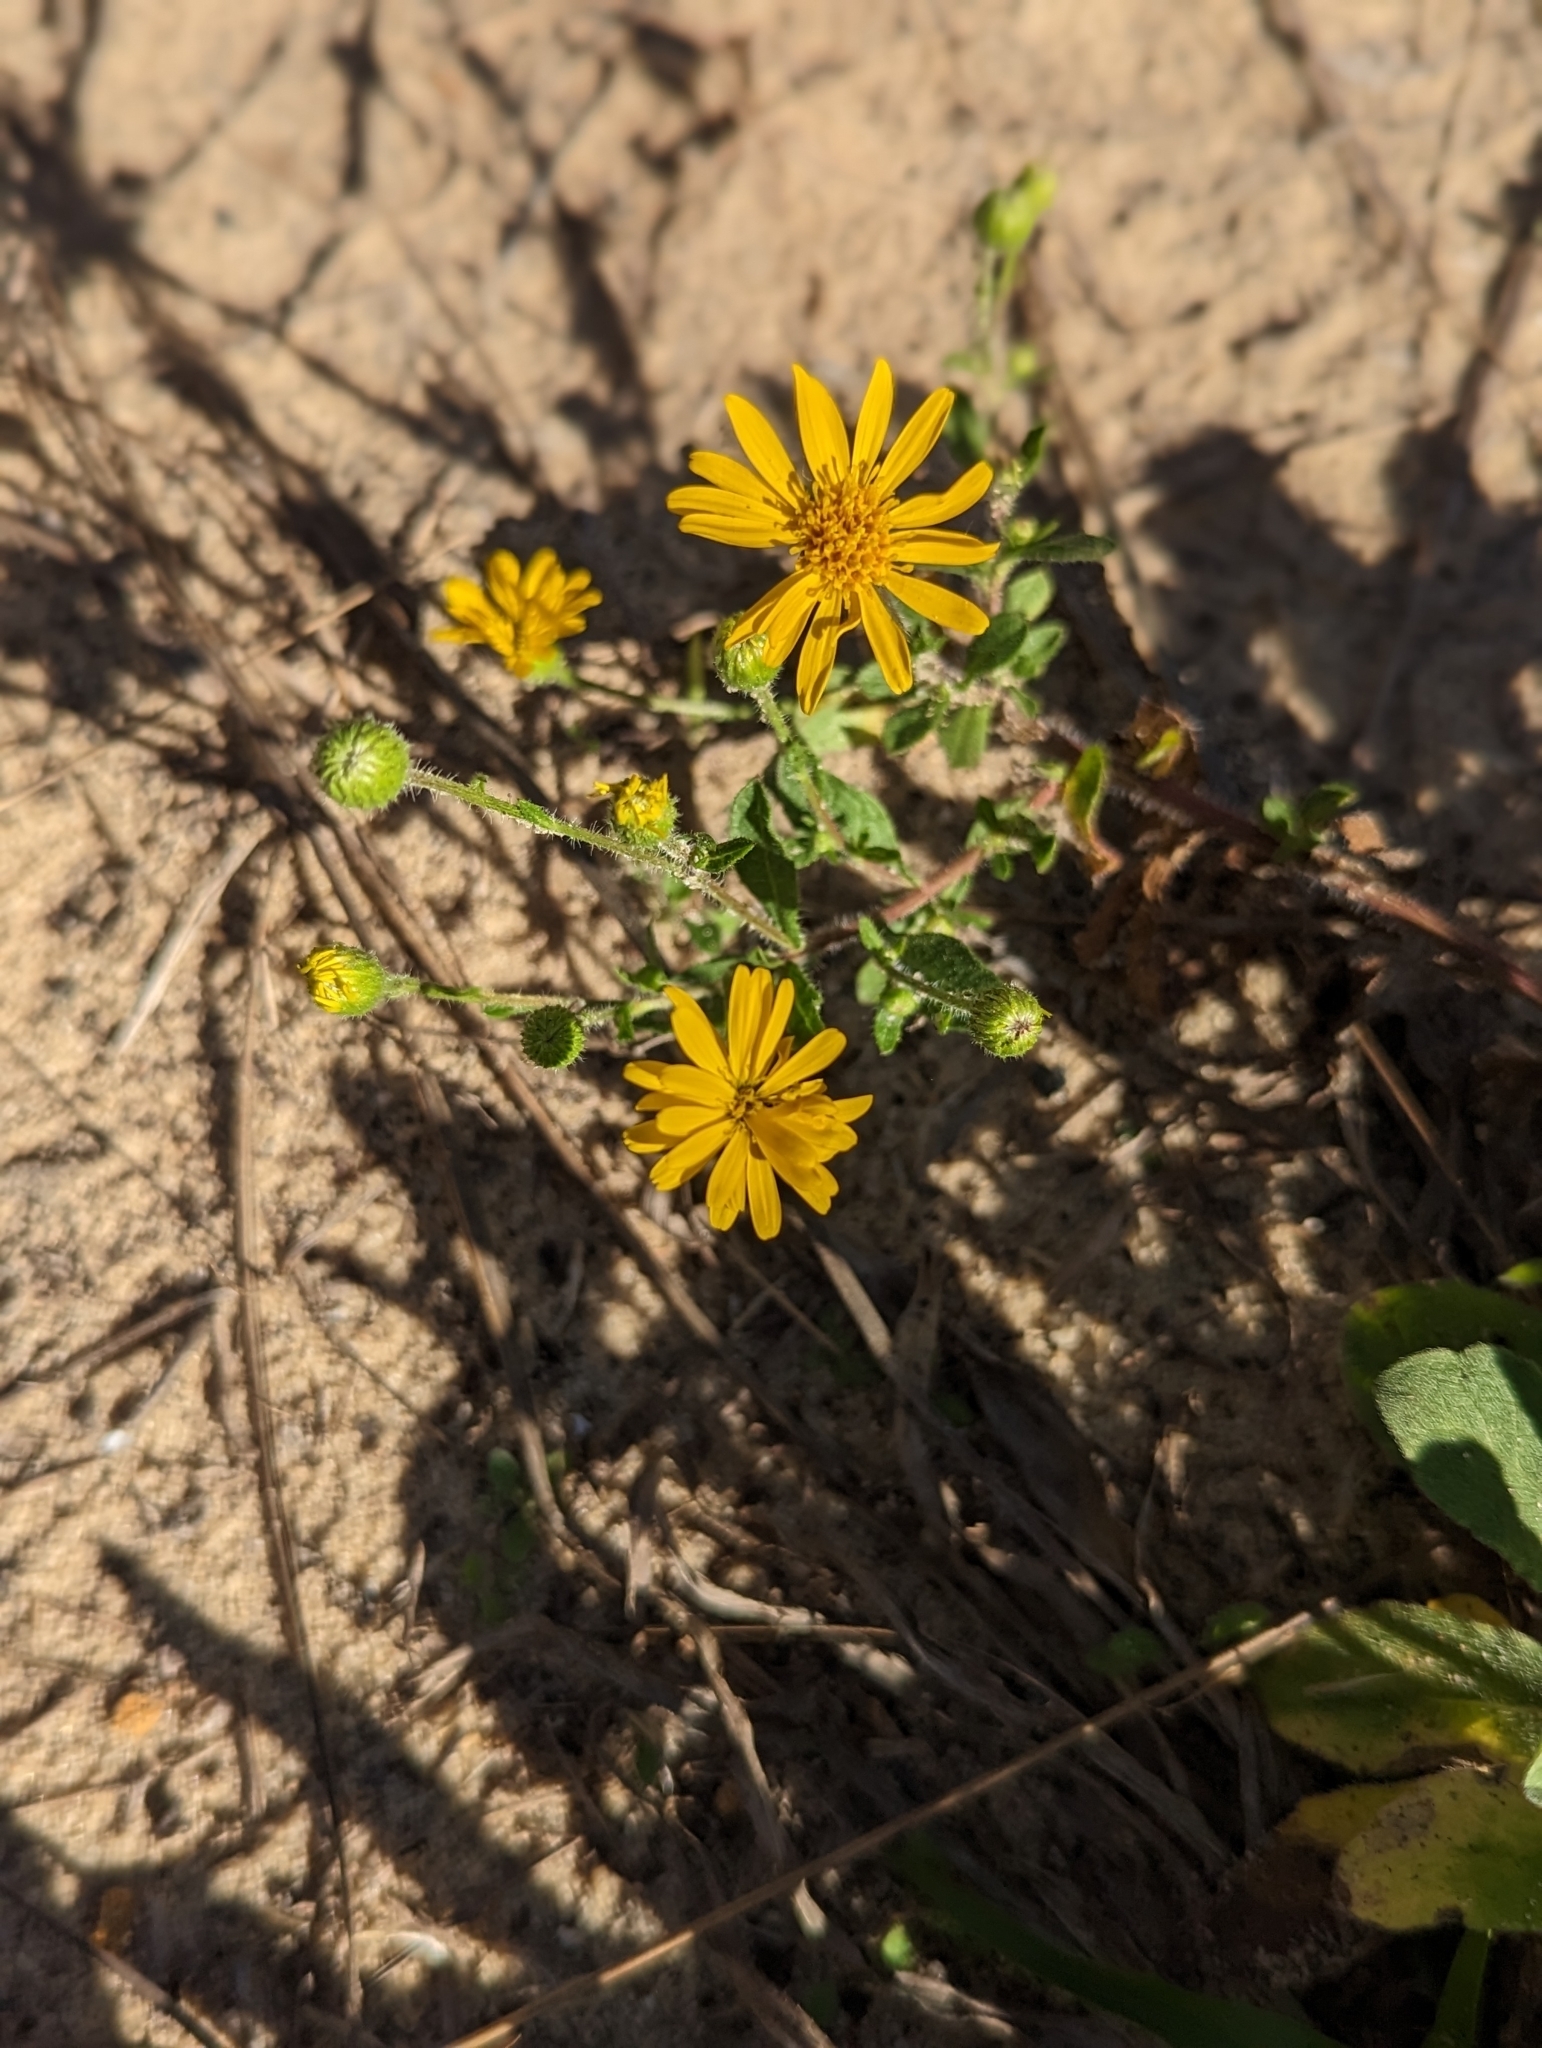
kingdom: Plantae
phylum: Tracheophyta
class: Magnoliopsida
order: Asterales
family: Asteraceae
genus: Heterotheca
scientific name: Heterotheca subaxillaris
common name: Camphorweed
